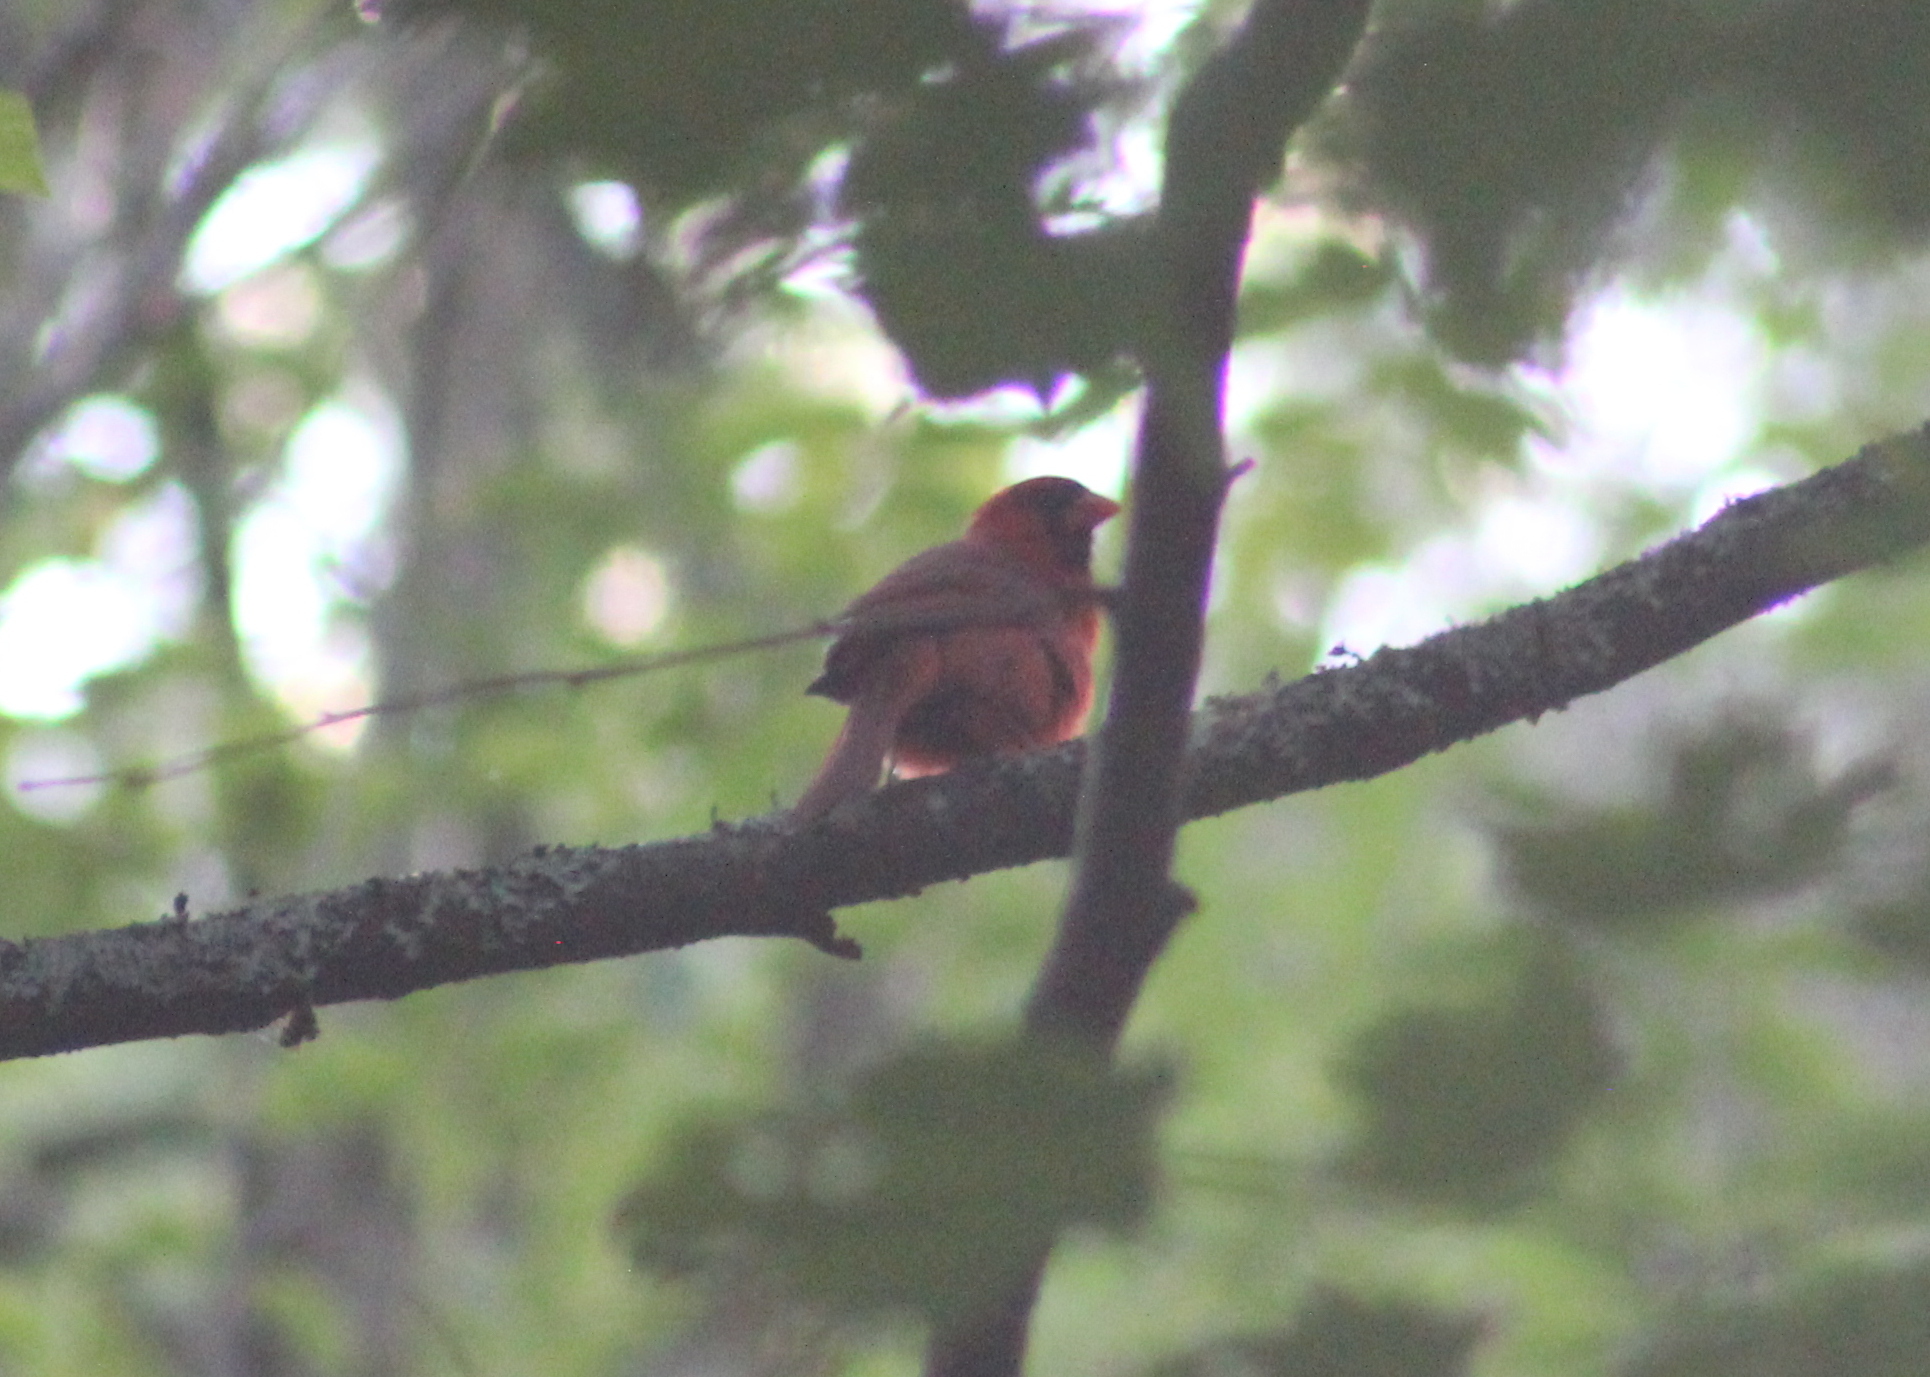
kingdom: Animalia
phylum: Chordata
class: Aves
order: Passeriformes
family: Cardinalidae
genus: Cardinalis
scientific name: Cardinalis cardinalis
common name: Northern cardinal
